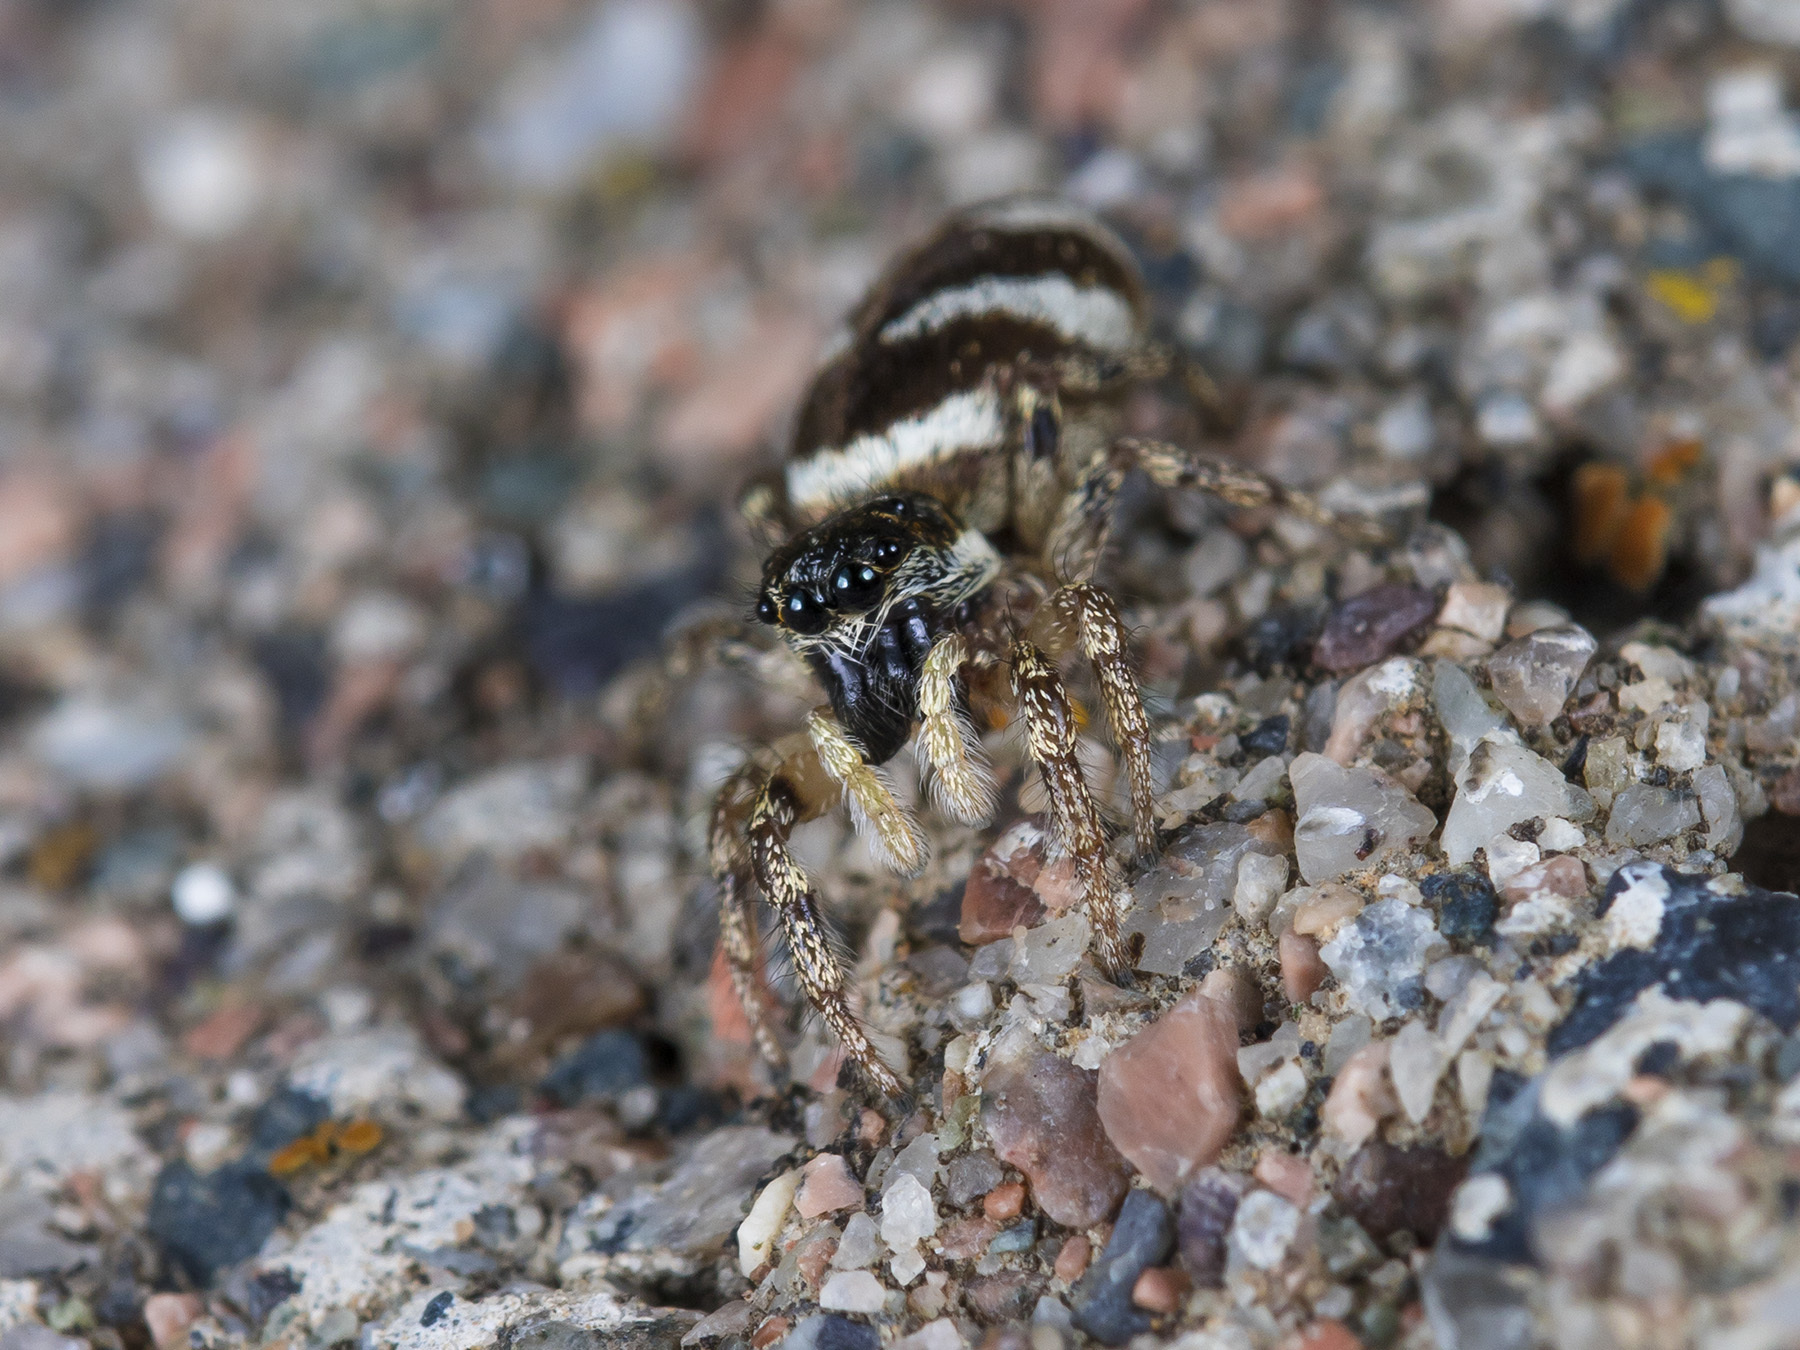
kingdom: Animalia
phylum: Arthropoda
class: Arachnida
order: Araneae
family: Salticidae
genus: Salticus
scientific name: Salticus scenicus
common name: Zebra jumper
